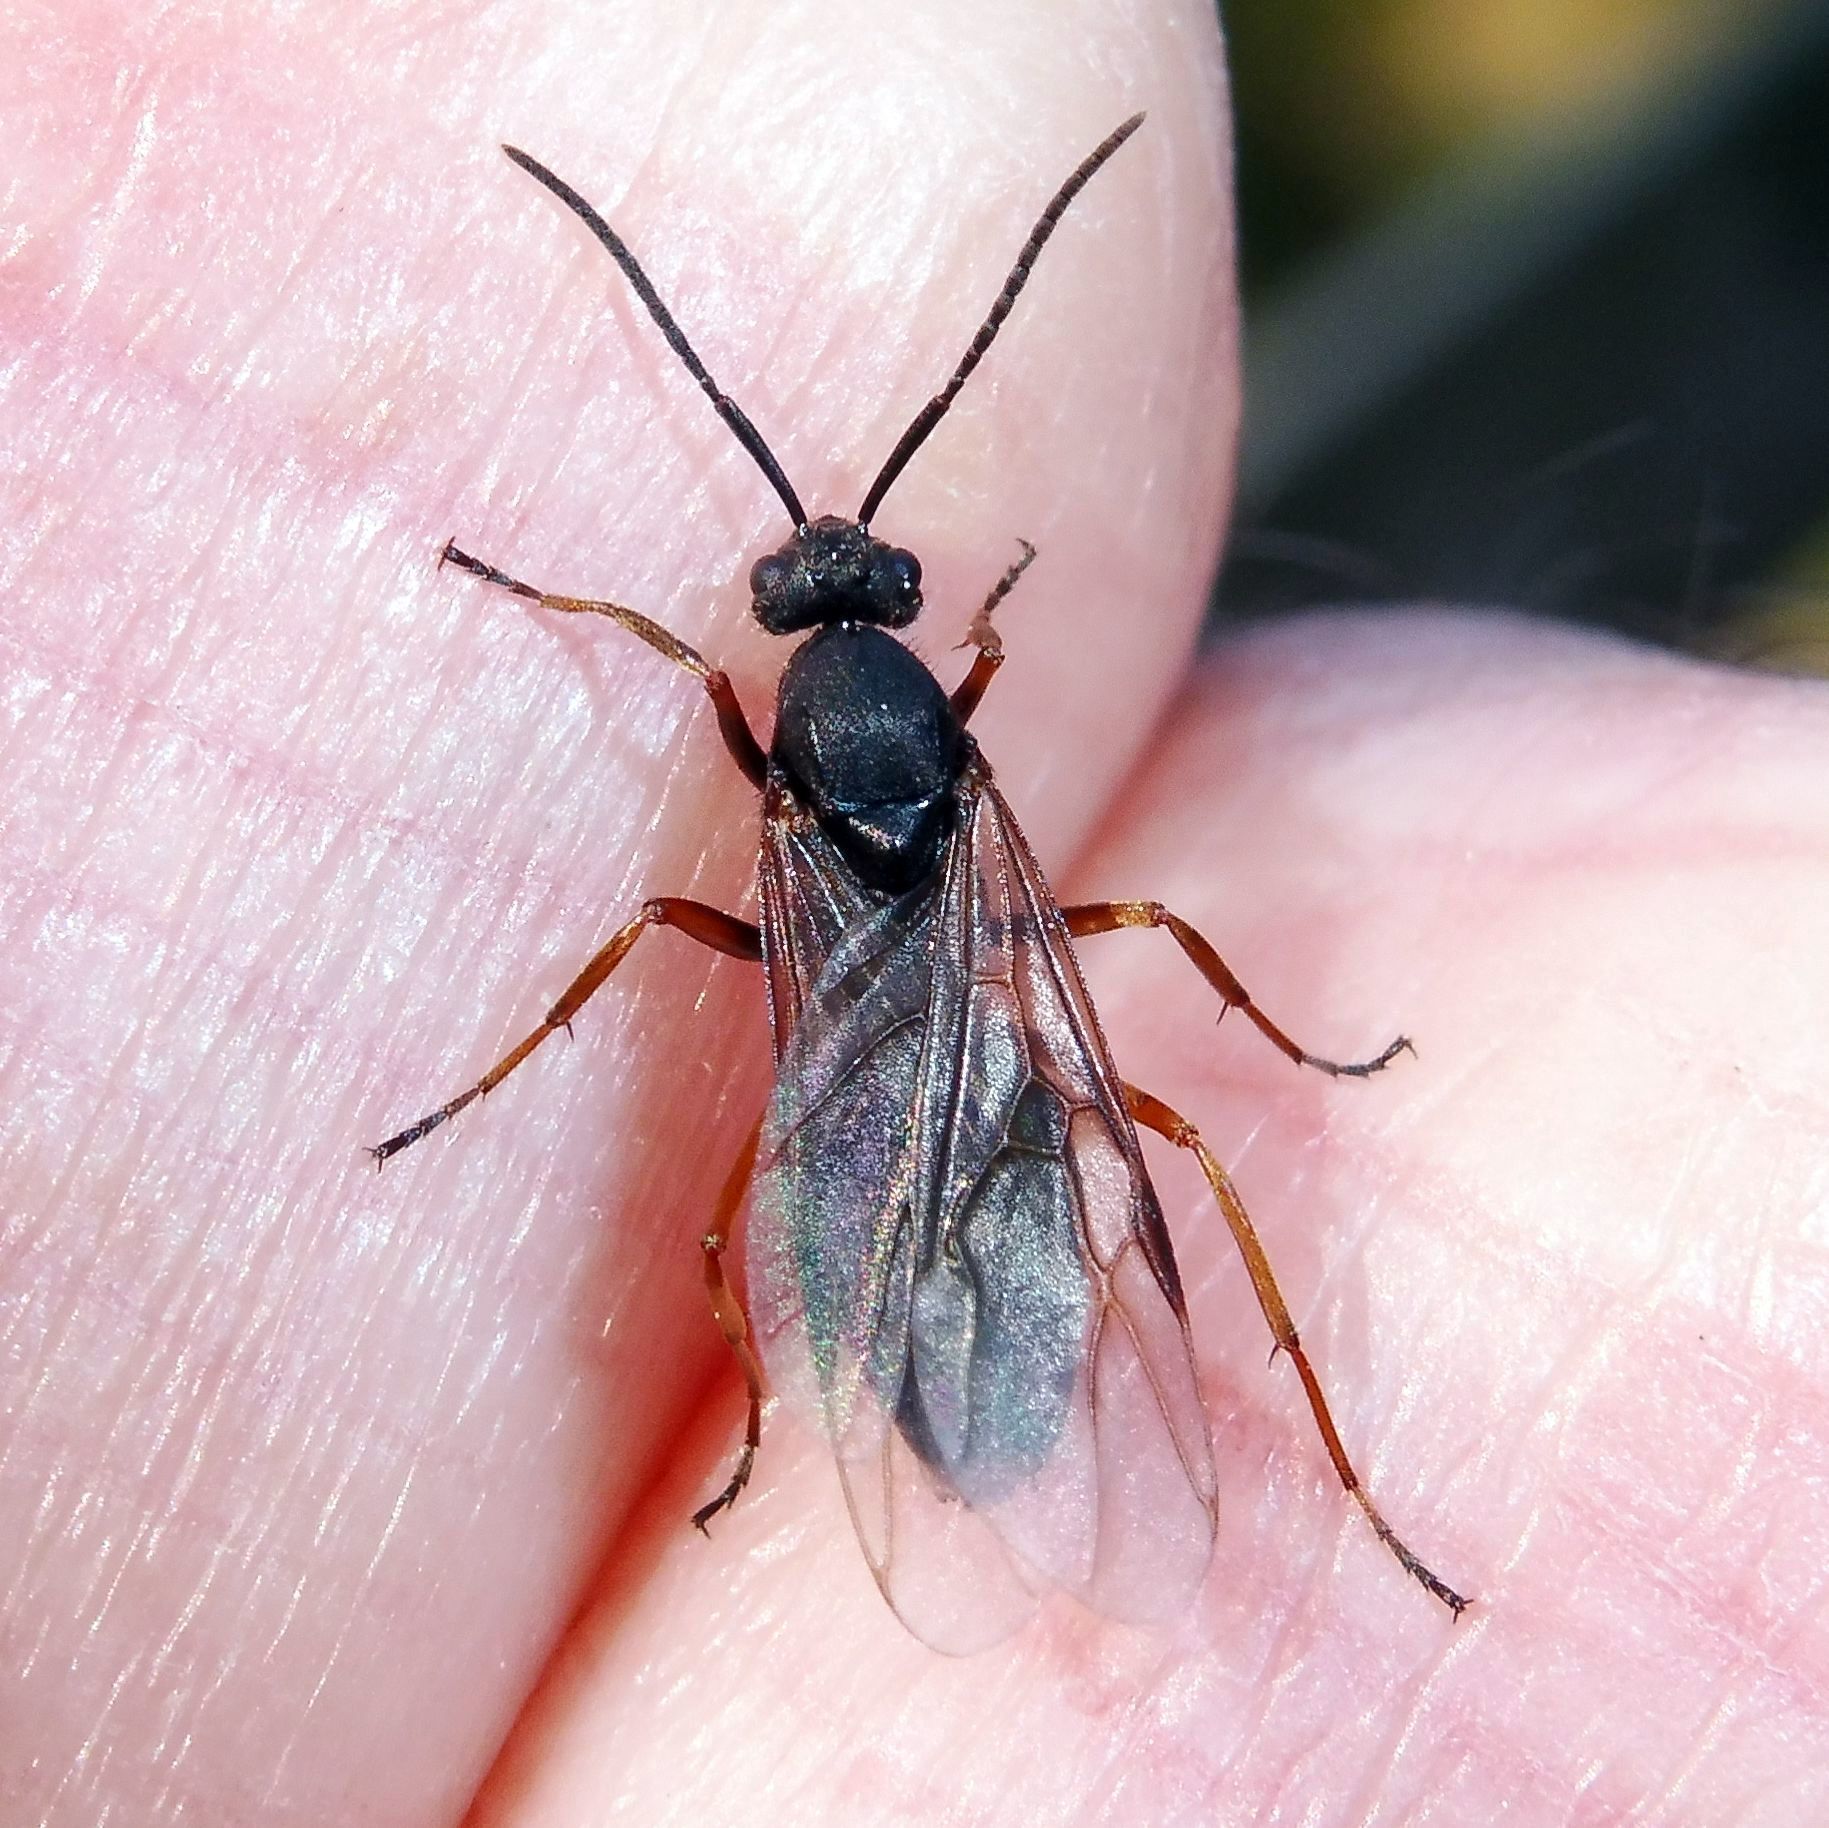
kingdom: Animalia
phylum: Arthropoda
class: Insecta
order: Hymenoptera
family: Formicidae
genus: Formica
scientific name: Formica
